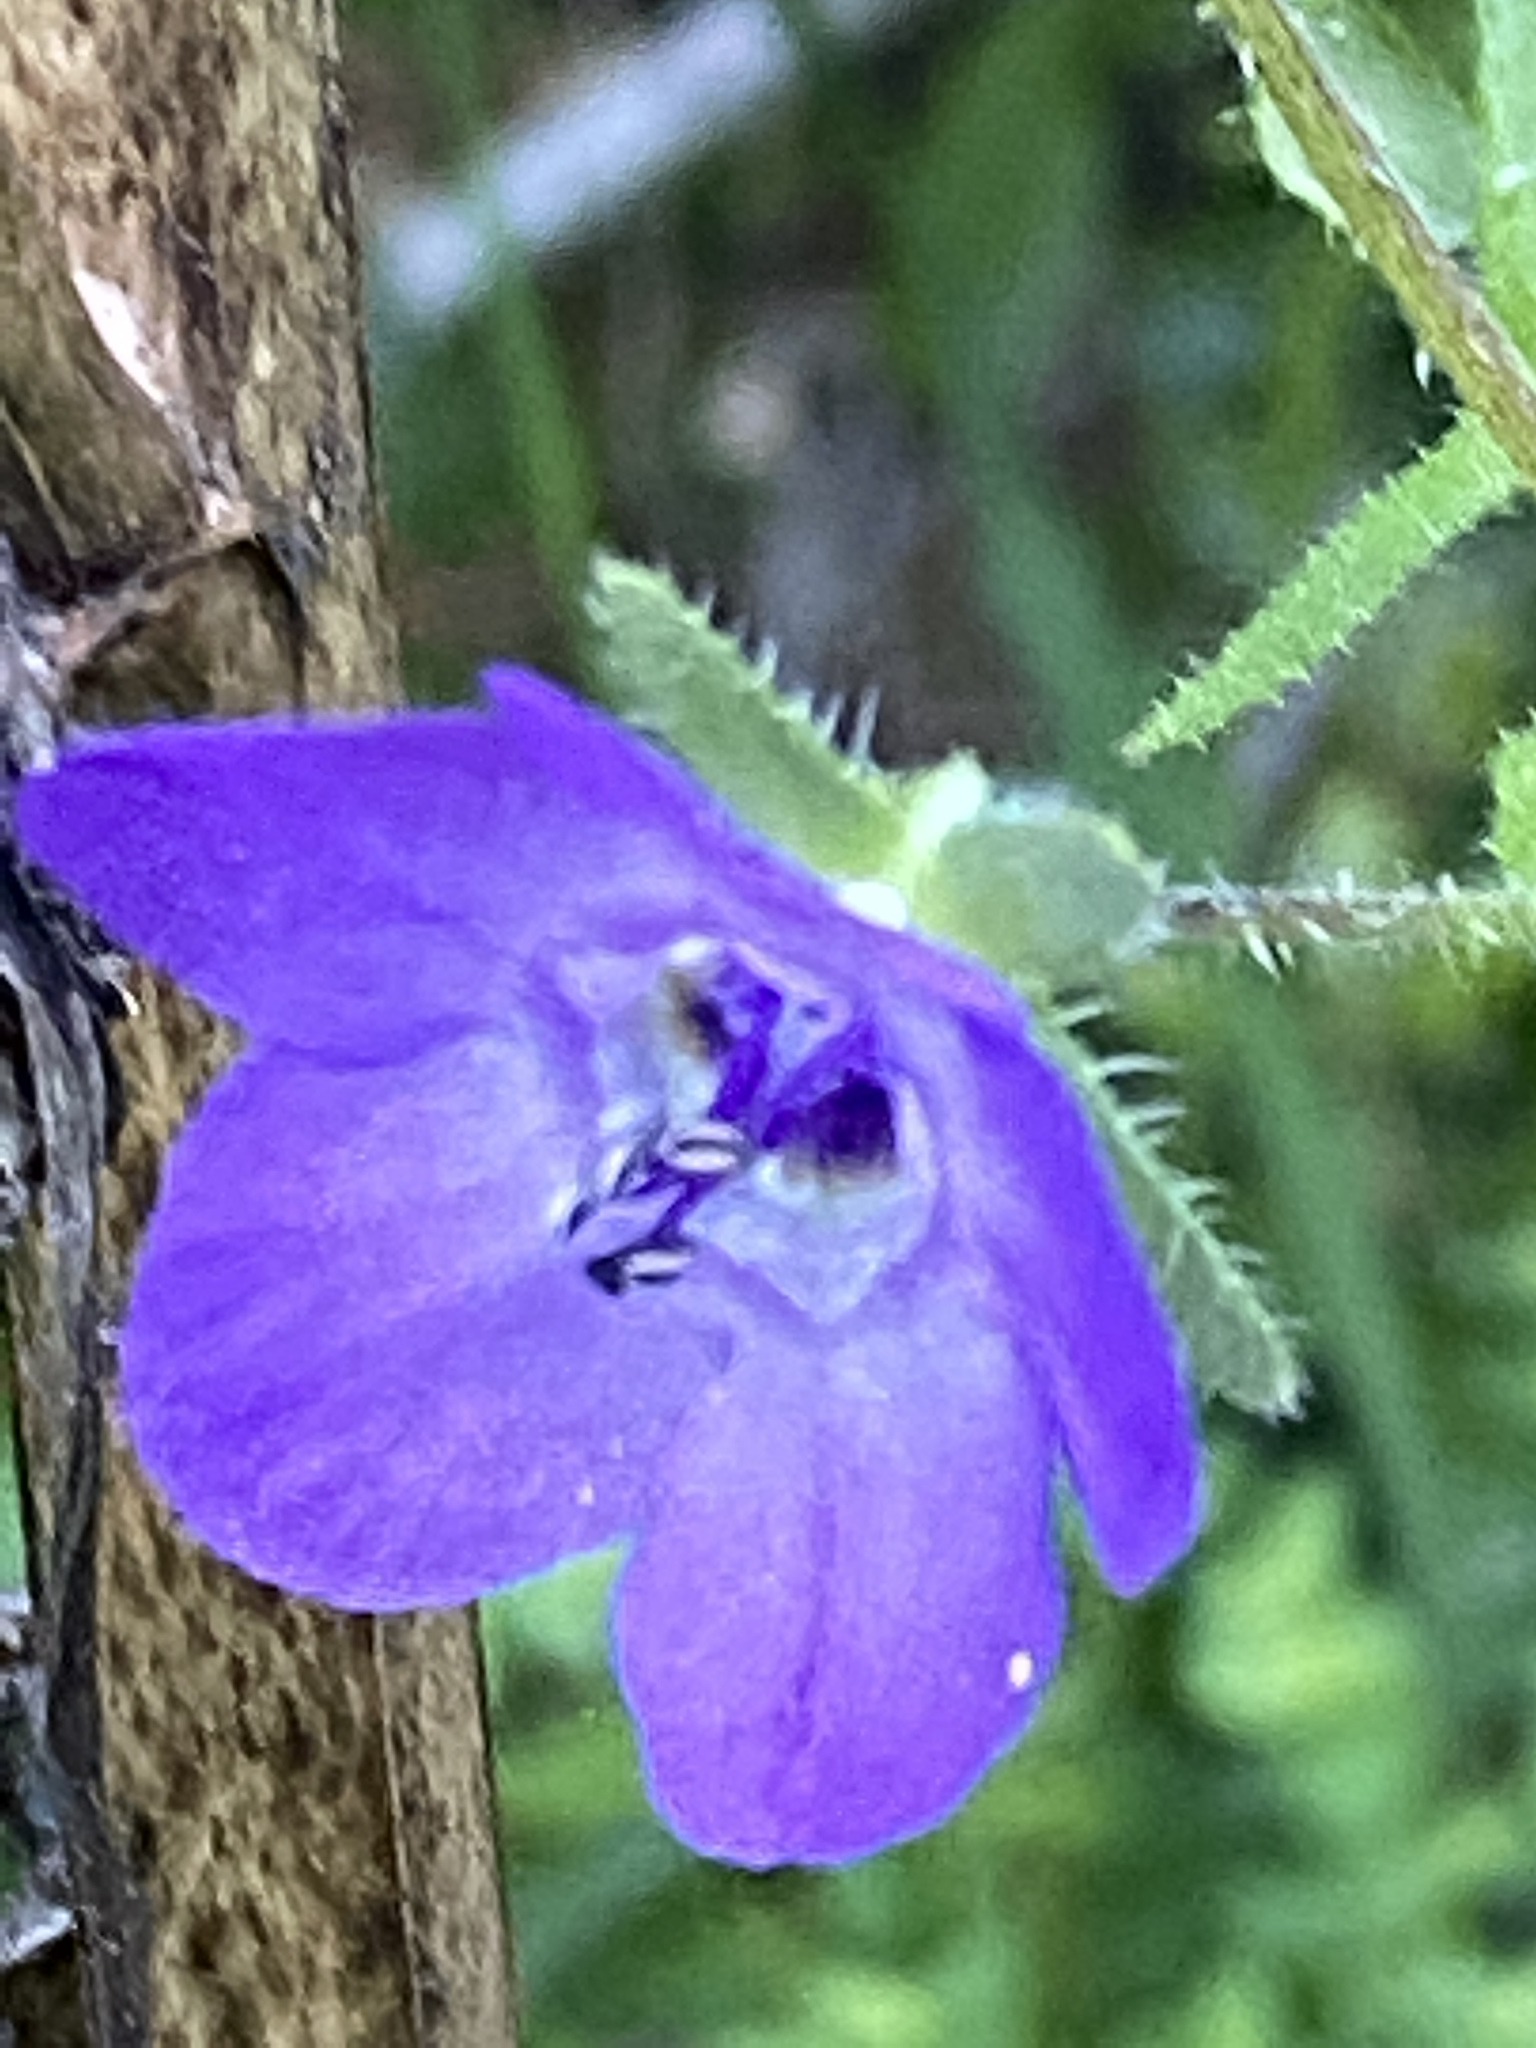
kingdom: Plantae
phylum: Tracheophyta
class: Magnoliopsida
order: Boraginales
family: Hydrophyllaceae
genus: Pholistoma
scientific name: Pholistoma auritum
